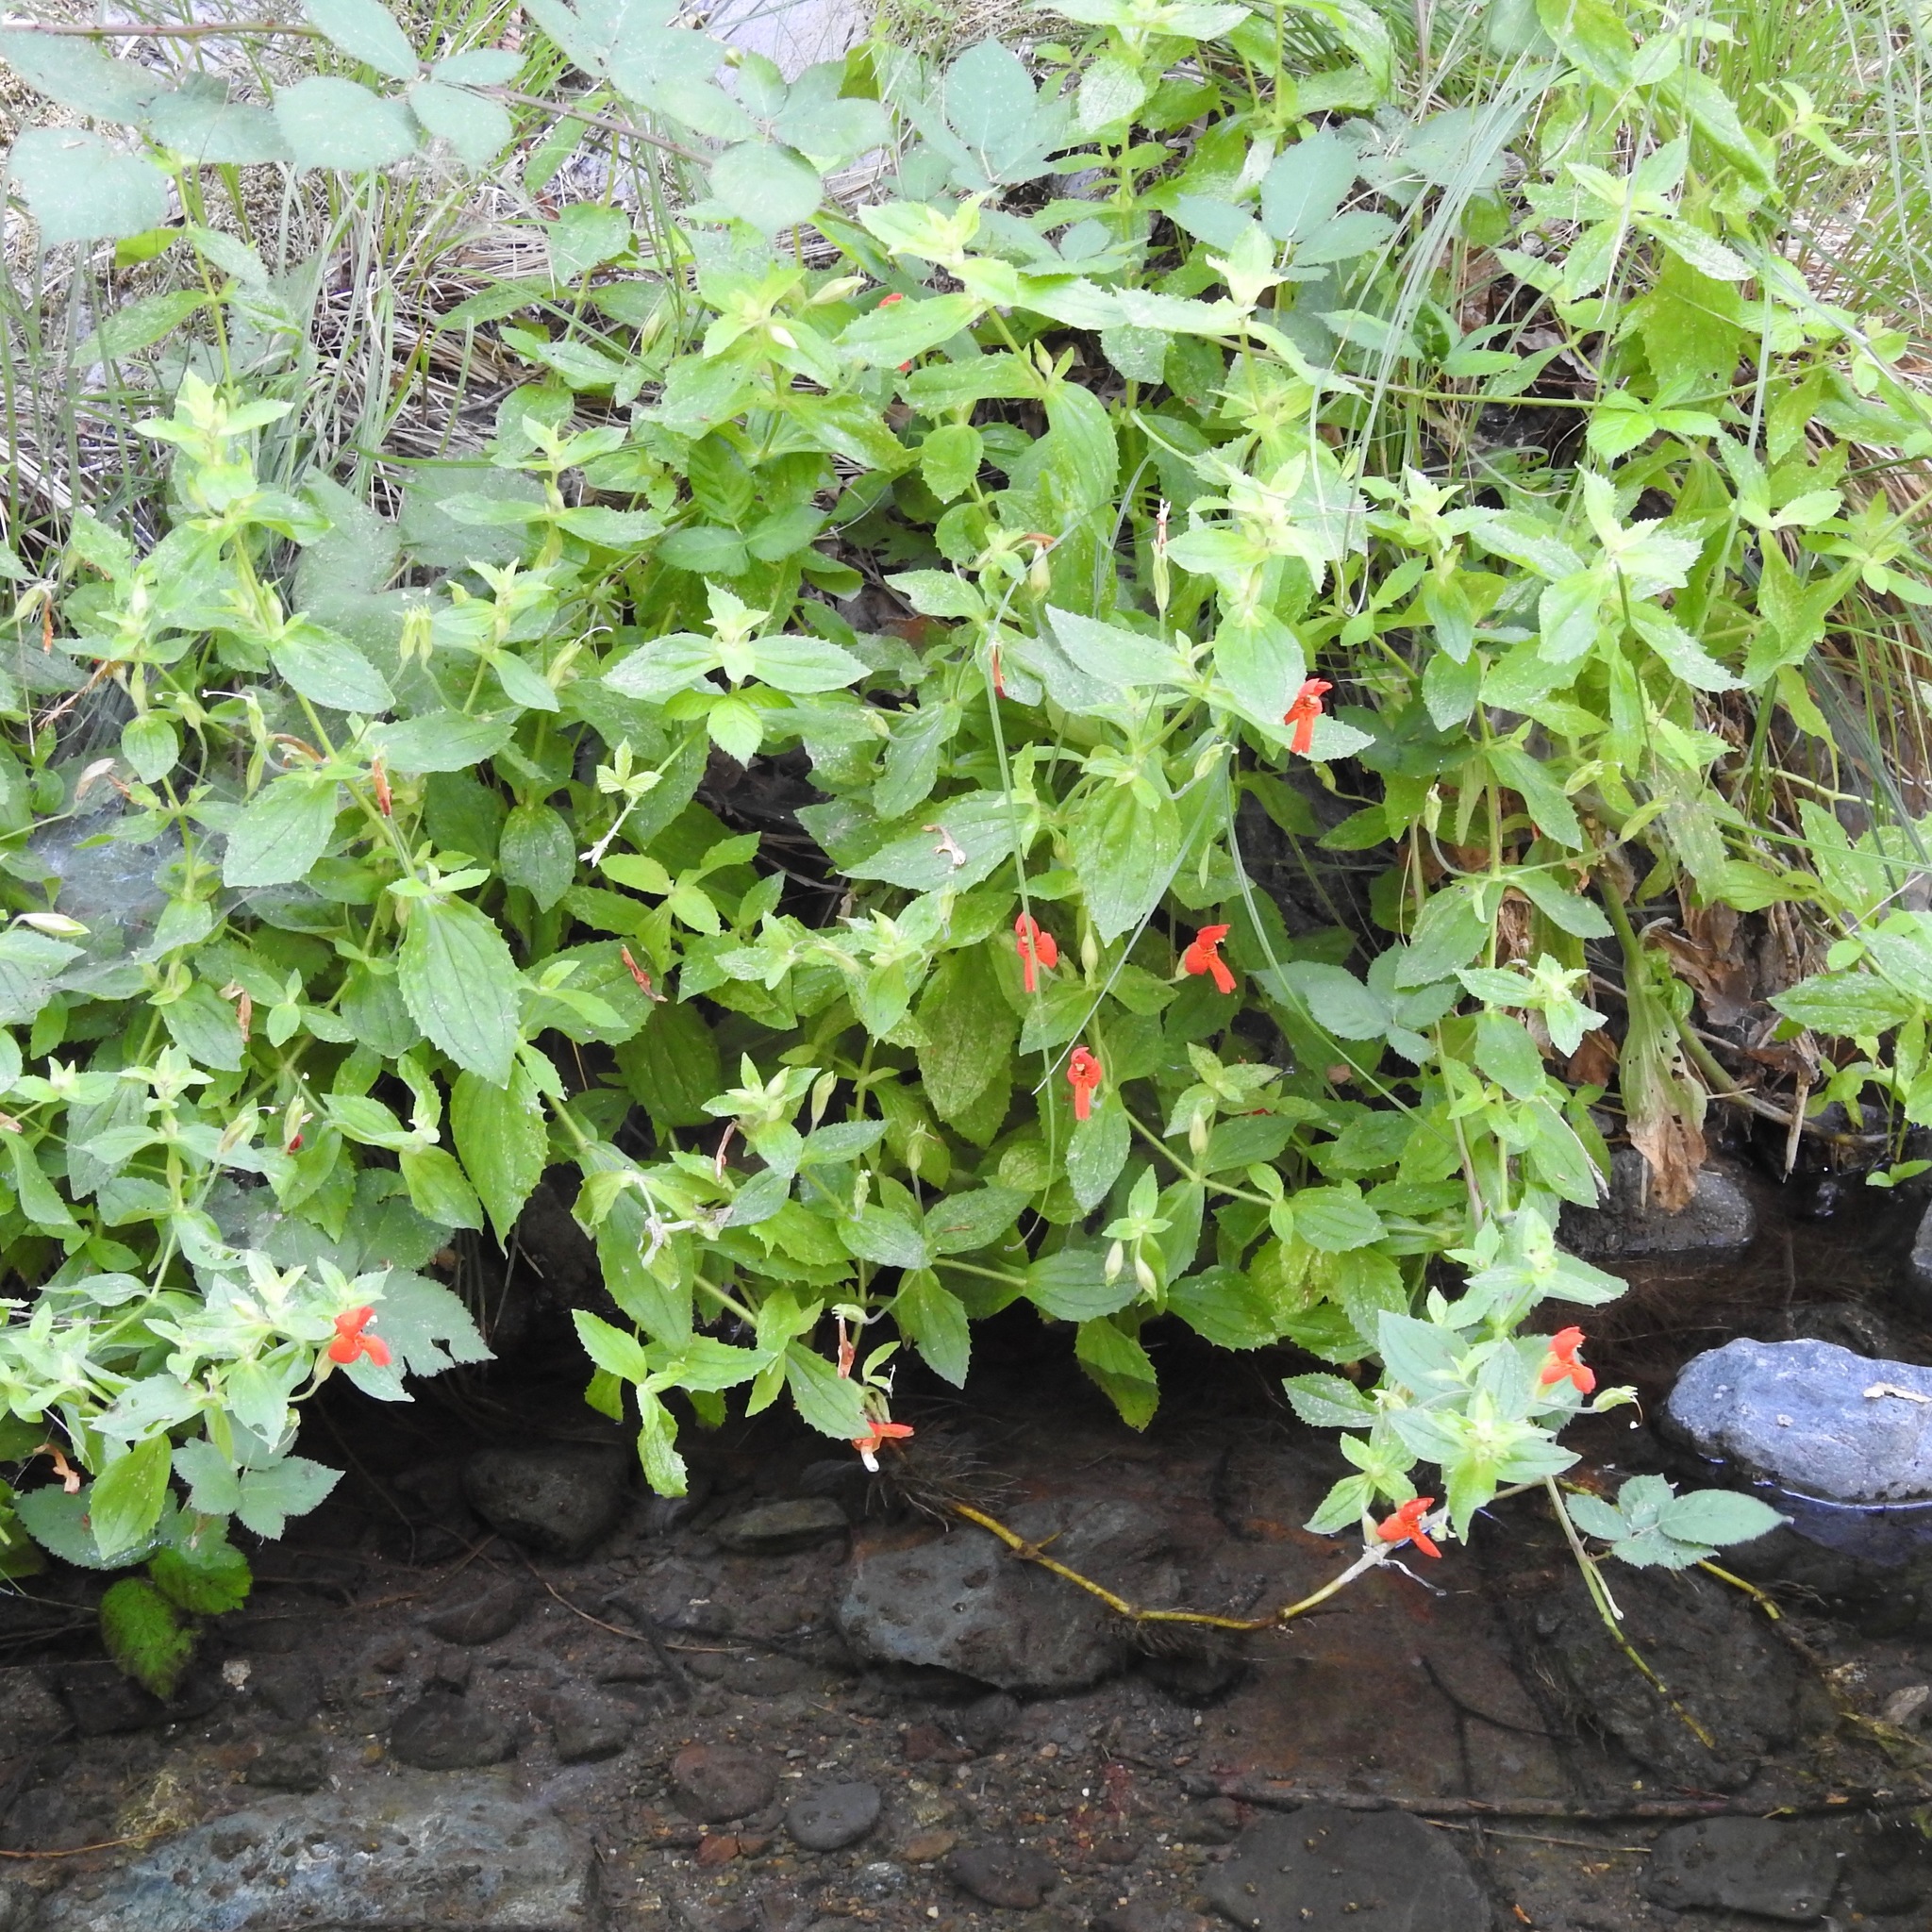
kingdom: Plantae
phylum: Tracheophyta
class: Magnoliopsida
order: Lamiales
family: Phrymaceae
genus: Erythranthe
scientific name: Erythranthe cardinalis
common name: Scarlet monkey-flower
